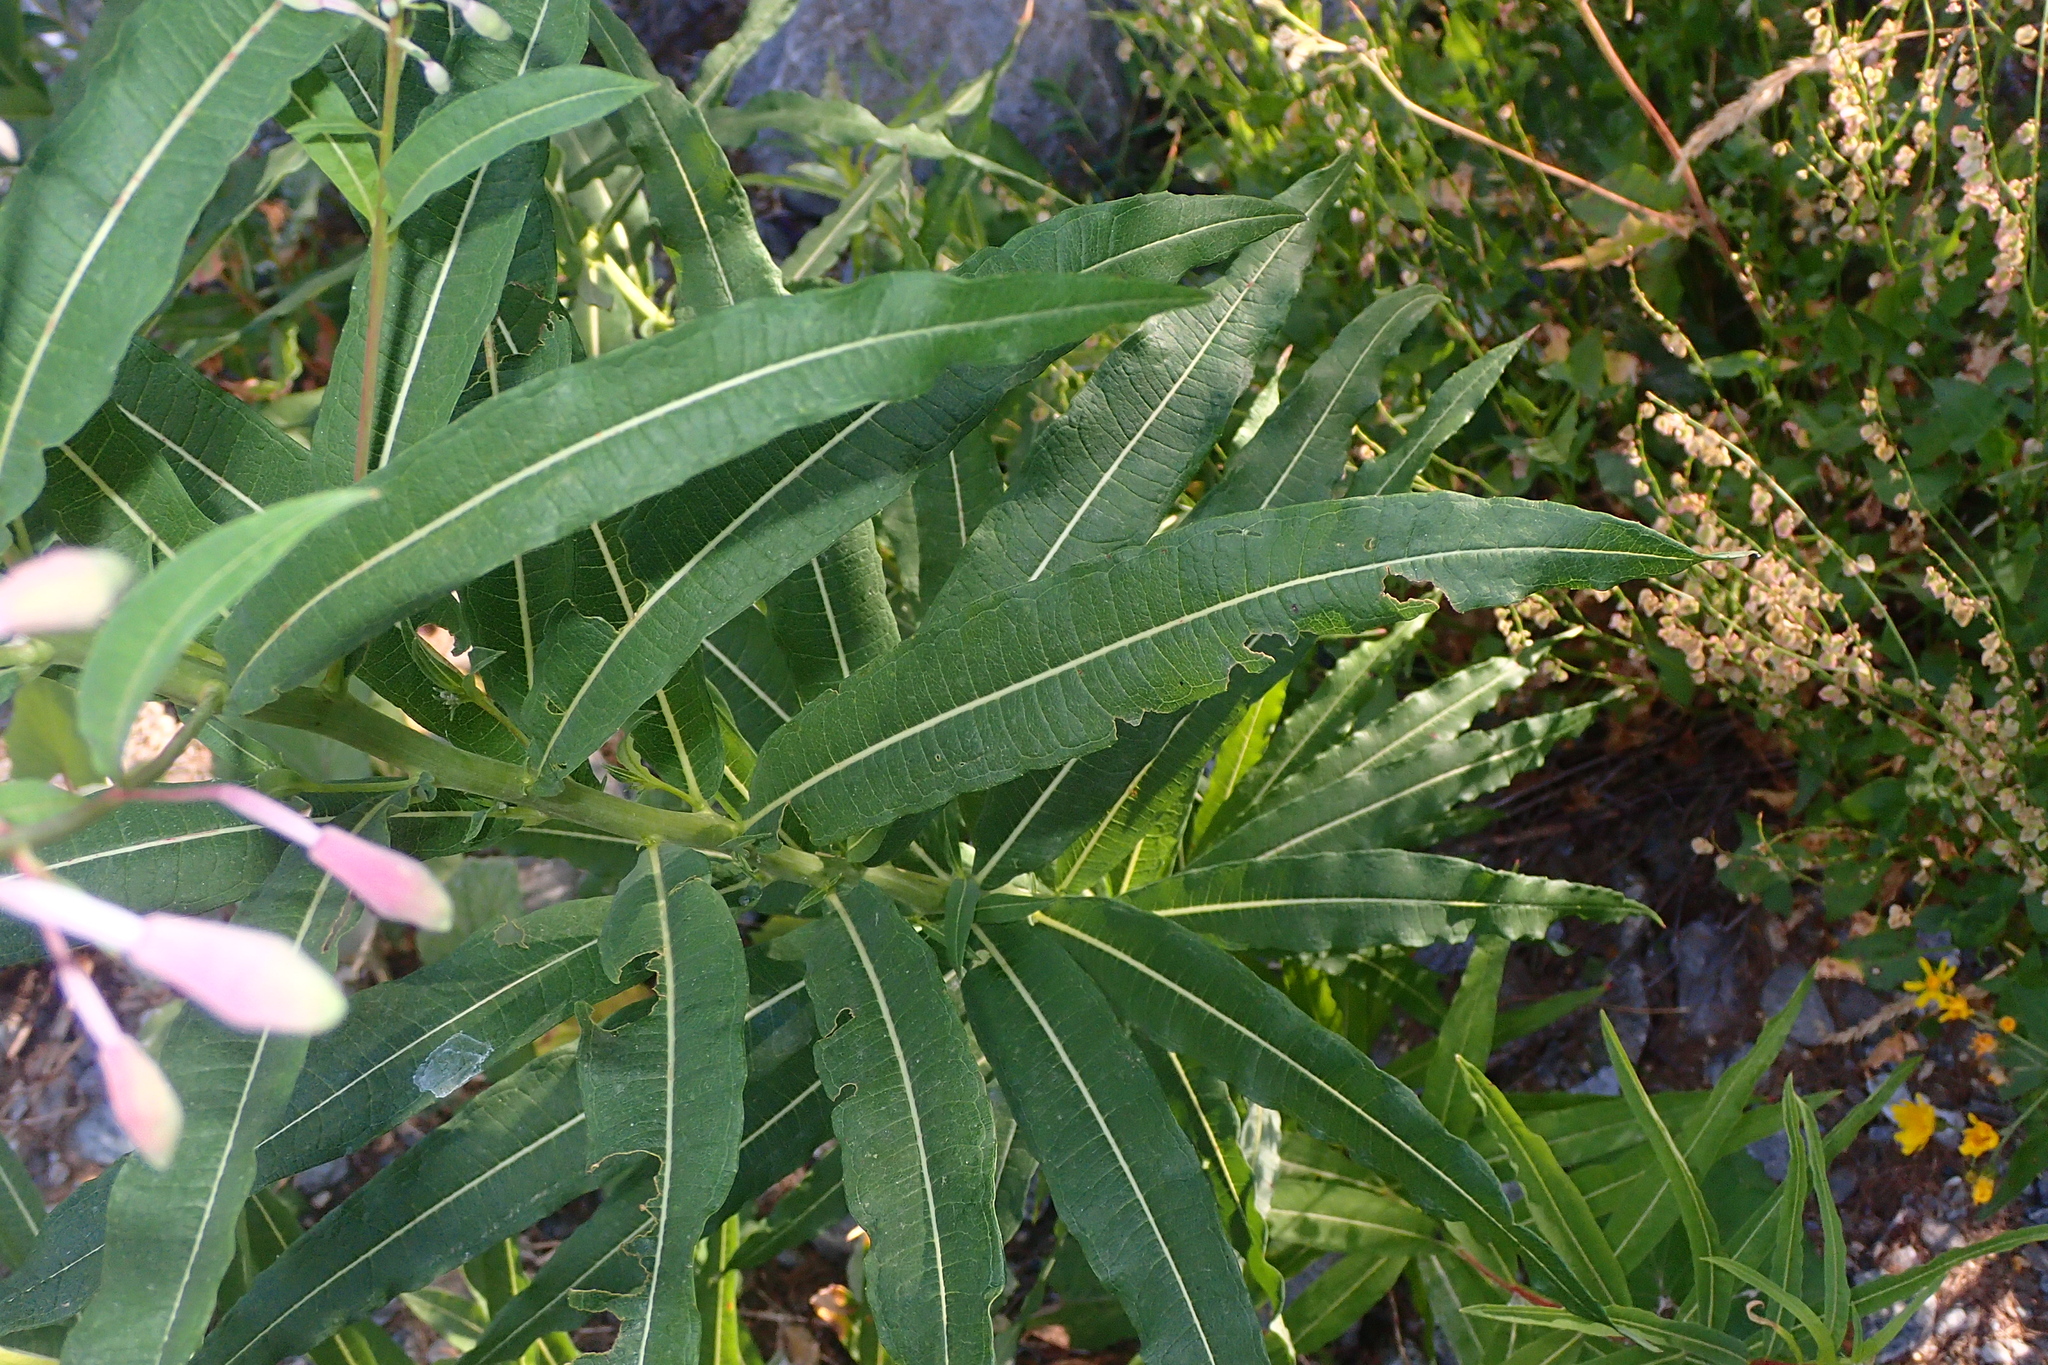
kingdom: Plantae
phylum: Tracheophyta
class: Magnoliopsida
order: Myrtales
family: Onagraceae
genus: Chamaenerion
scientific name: Chamaenerion angustifolium
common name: Fireweed
